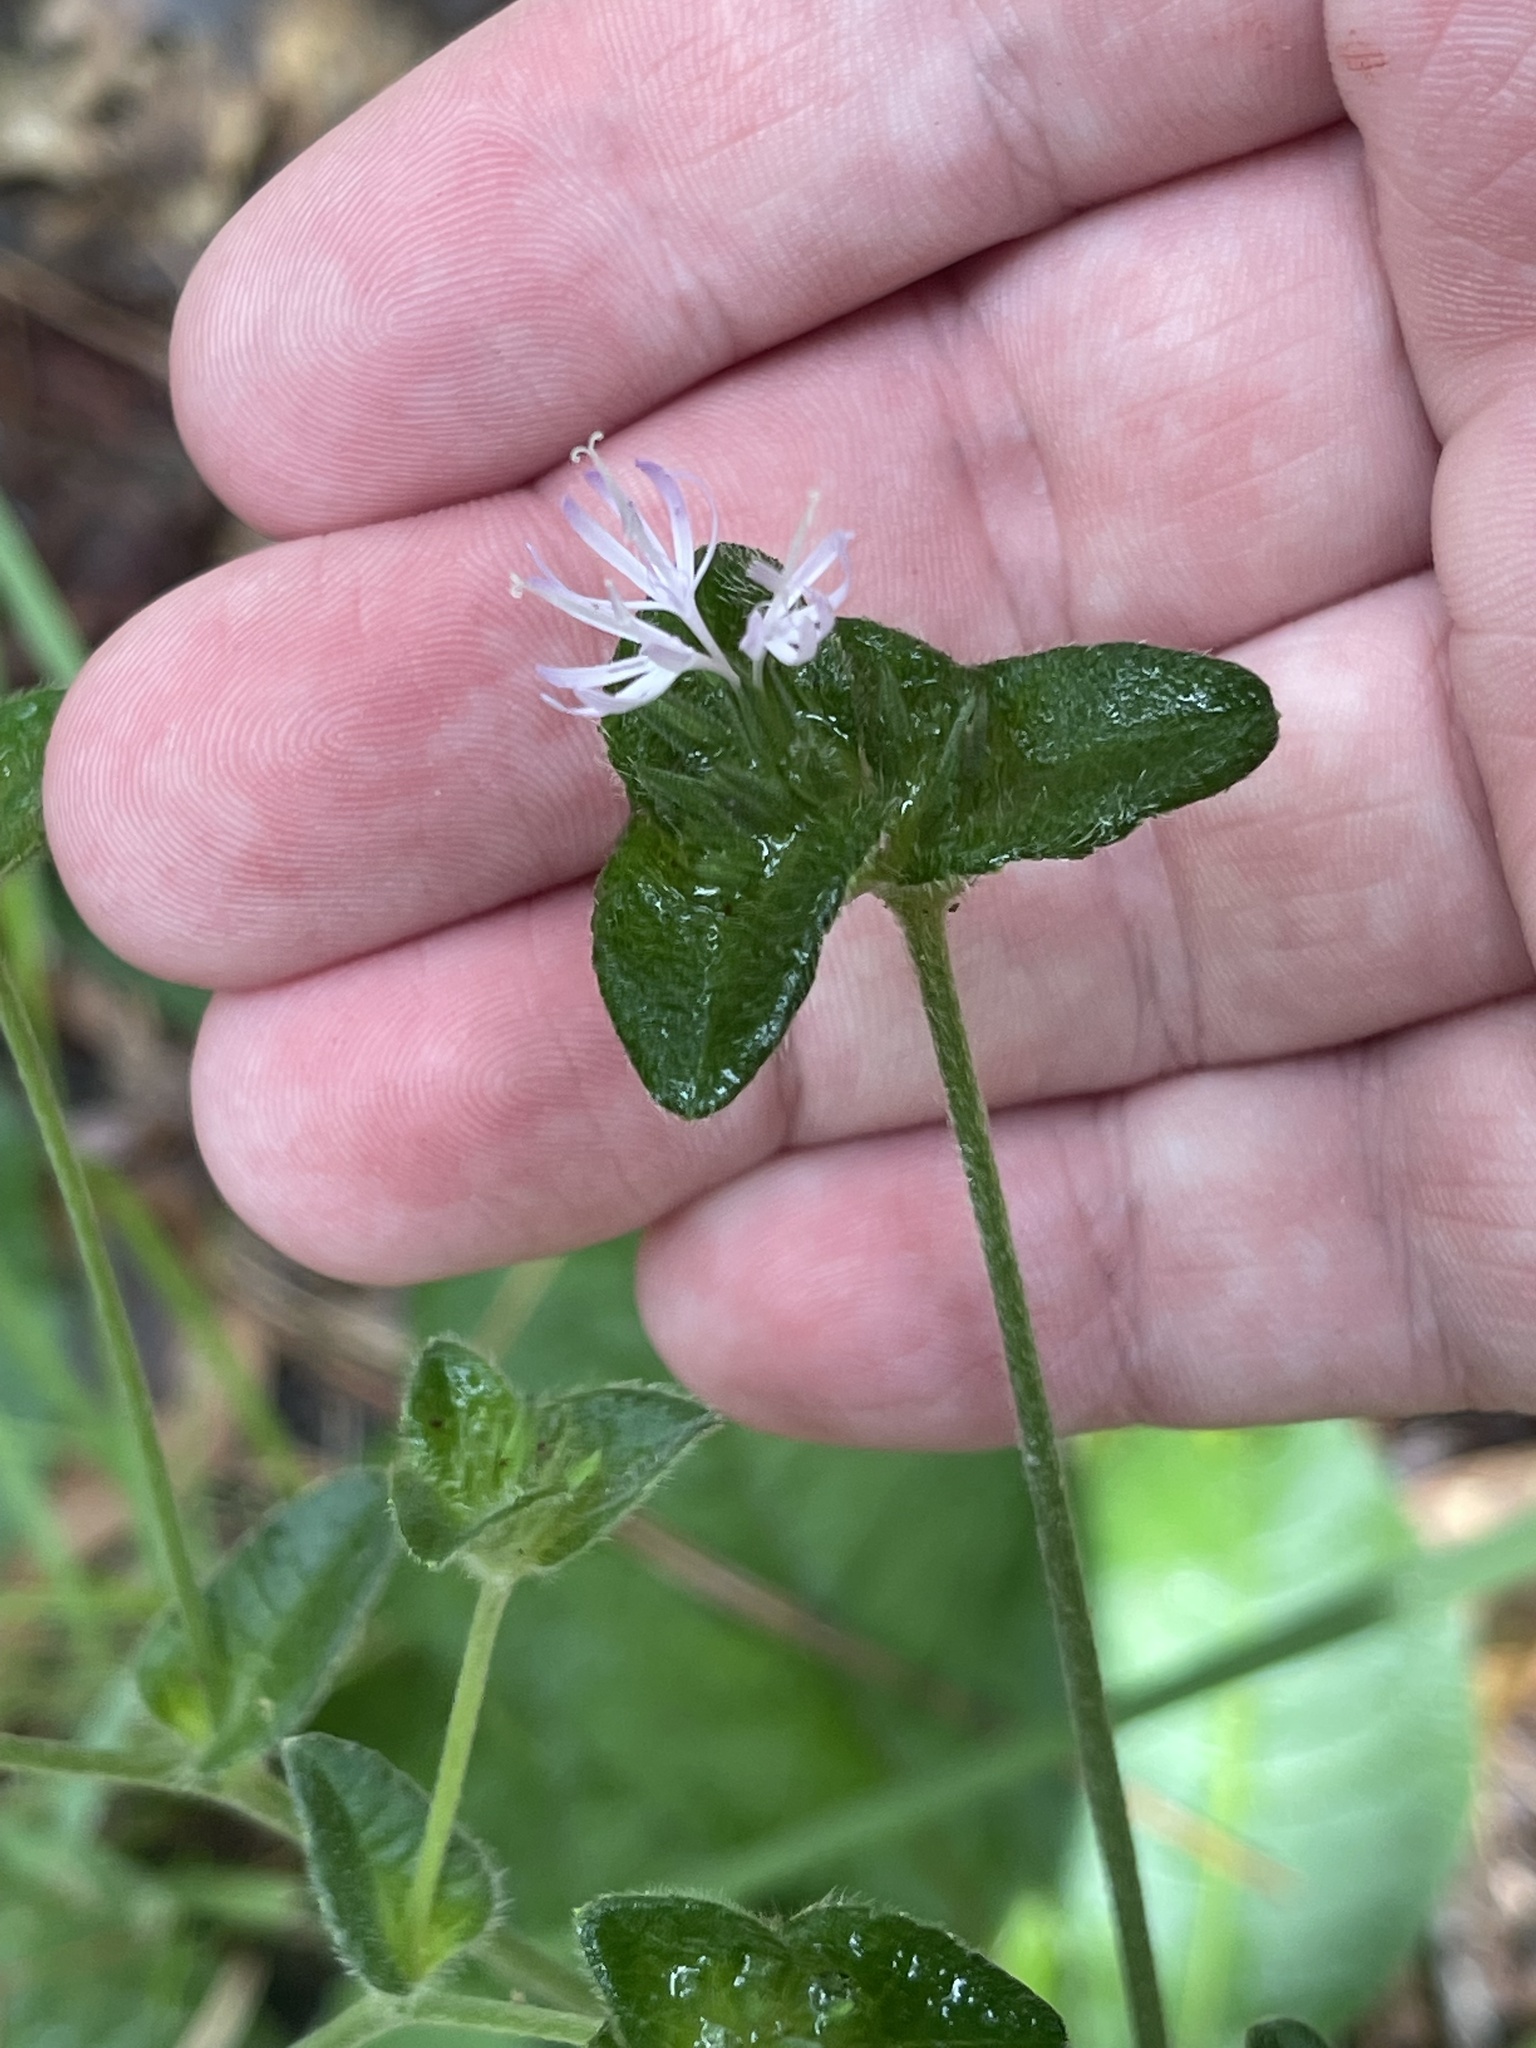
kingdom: Plantae
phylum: Tracheophyta
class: Magnoliopsida
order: Asterales
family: Asteraceae
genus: Elephantopus
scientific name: Elephantopus tomentosus
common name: Tobacco-weed
